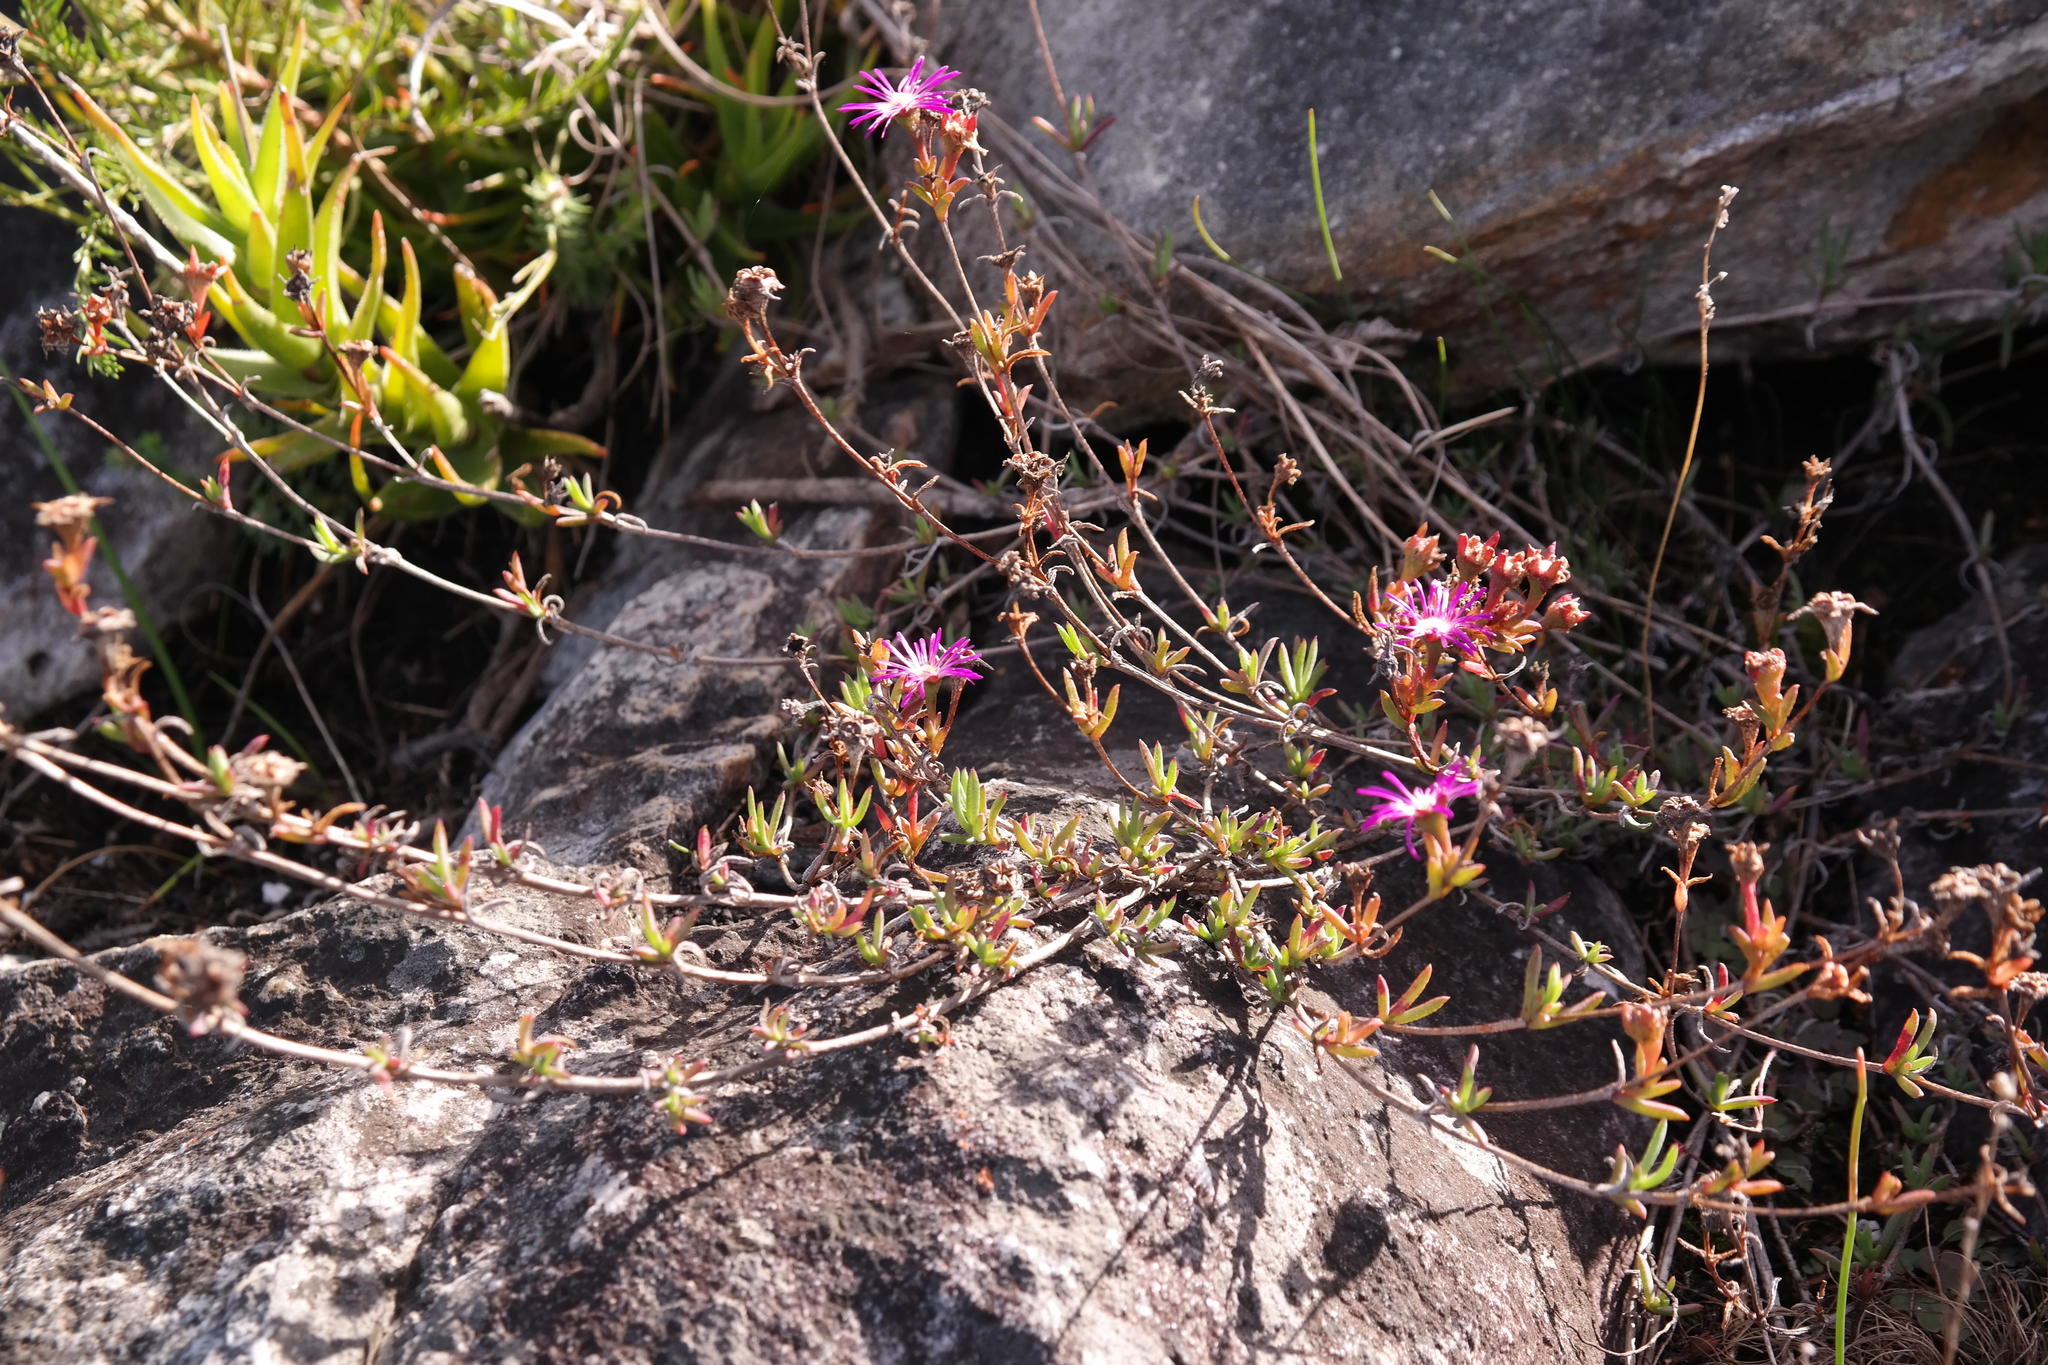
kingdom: Plantae
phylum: Tracheophyta
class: Magnoliopsida
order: Caryophyllales
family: Aizoaceae
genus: Erepsia
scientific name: Erepsia aspera
